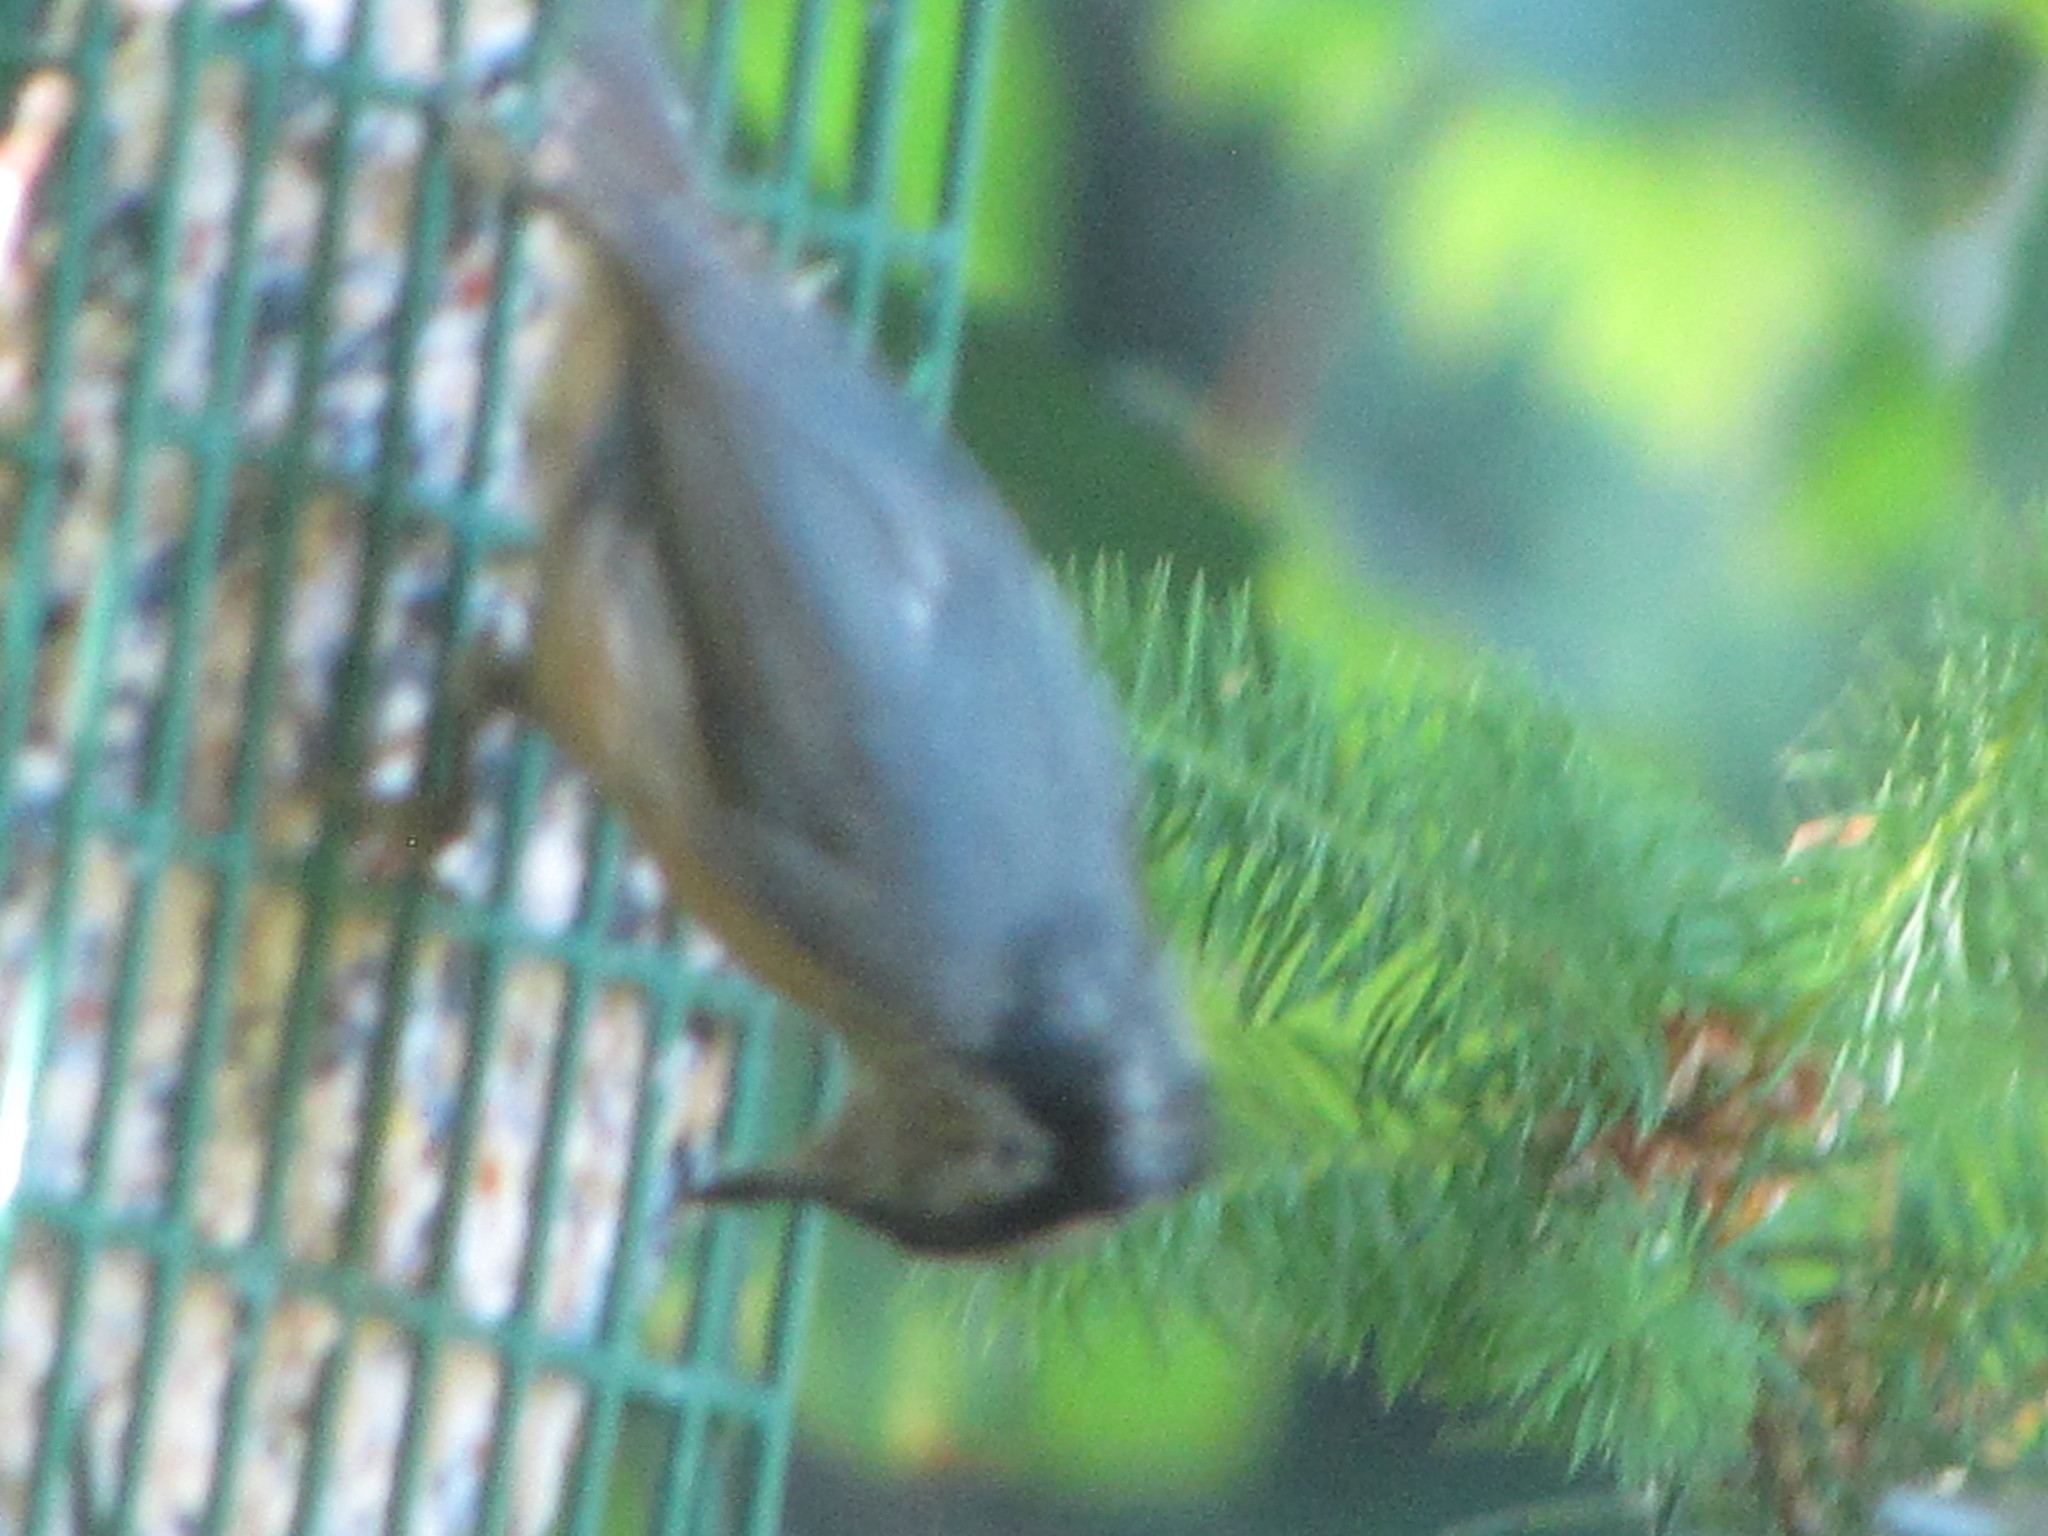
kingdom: Animalia
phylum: Chordata
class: Aves
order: Passeriformes
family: Sittidae
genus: Sitta
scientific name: Sitta canadensis
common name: Red-breasted nuthatch
